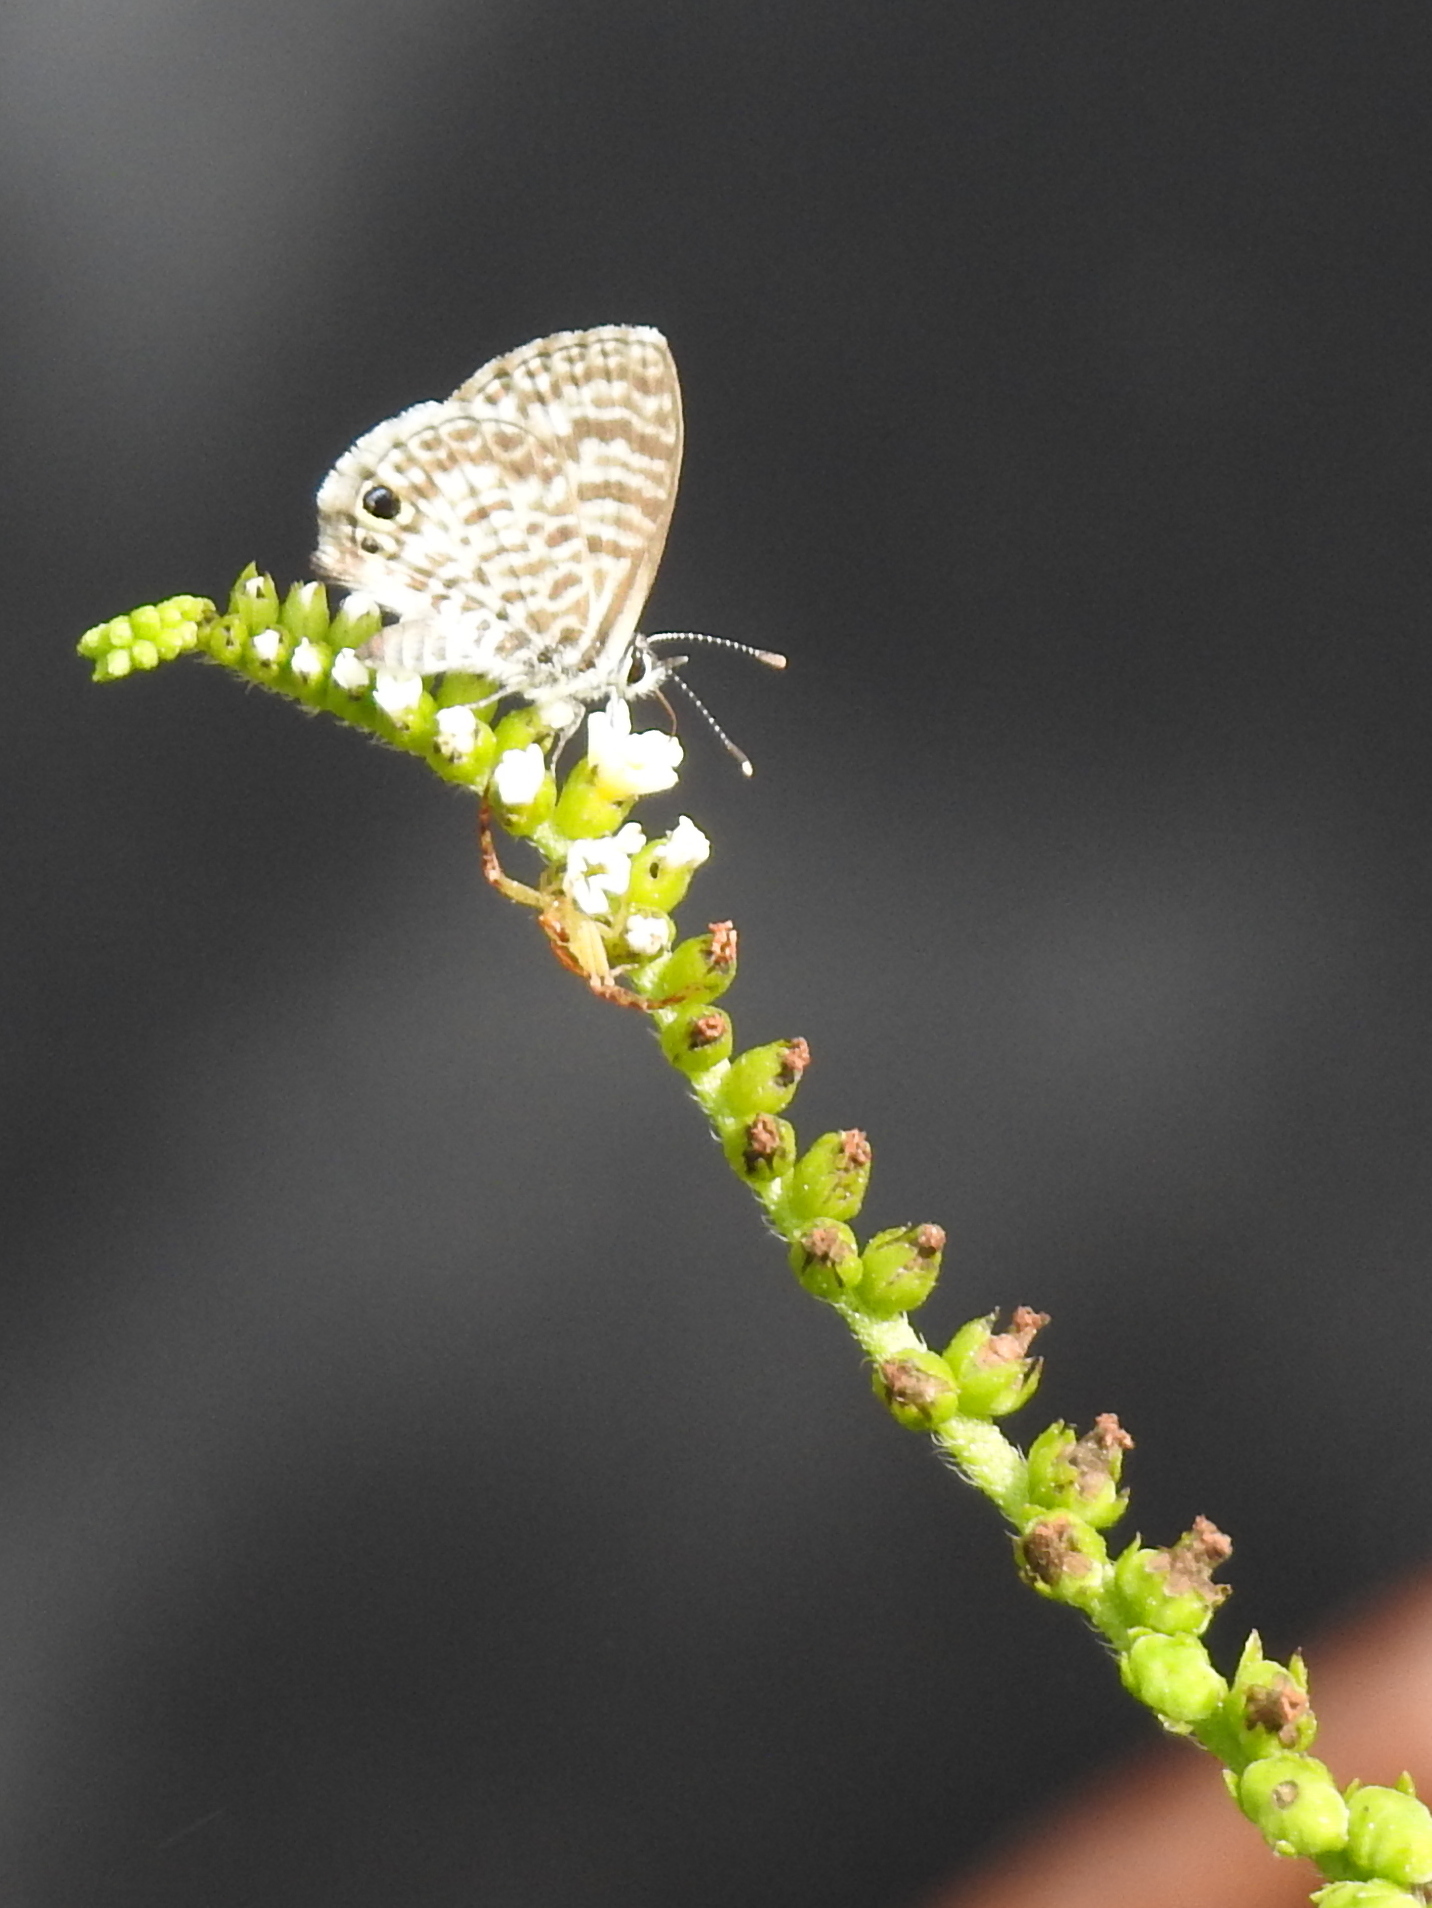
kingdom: Animalia
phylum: Arthropoda
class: Insecta
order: Lepidoptera
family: Lycaenidae
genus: Leptotes
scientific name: Leptotes cassius
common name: Cassius blue
